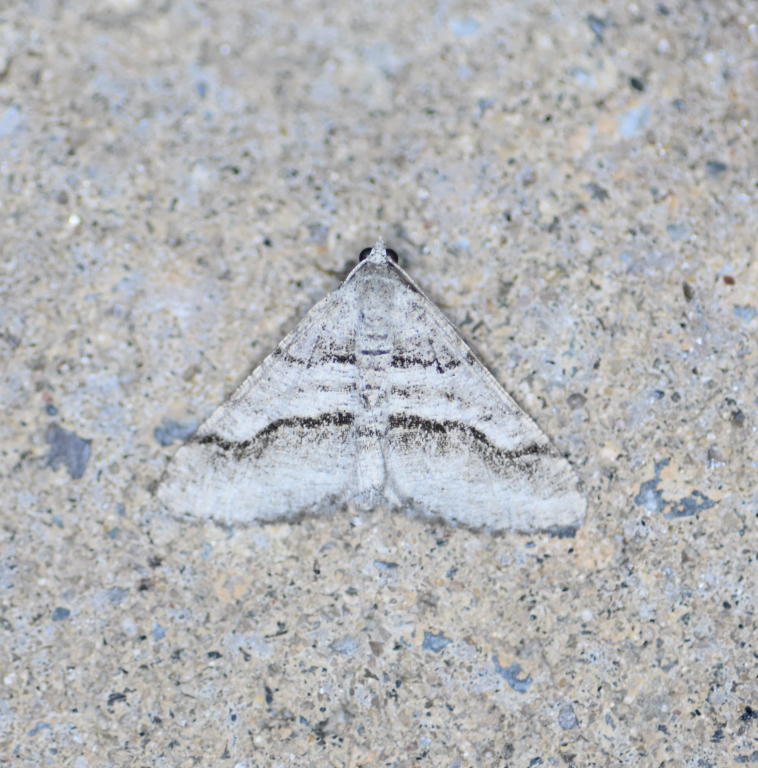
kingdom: Animalia
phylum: Arthropoda
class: Insecta
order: Lepidoptera
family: Geometridae
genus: Digrammia
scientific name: Digrammia continuata
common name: Curve-lined angle
